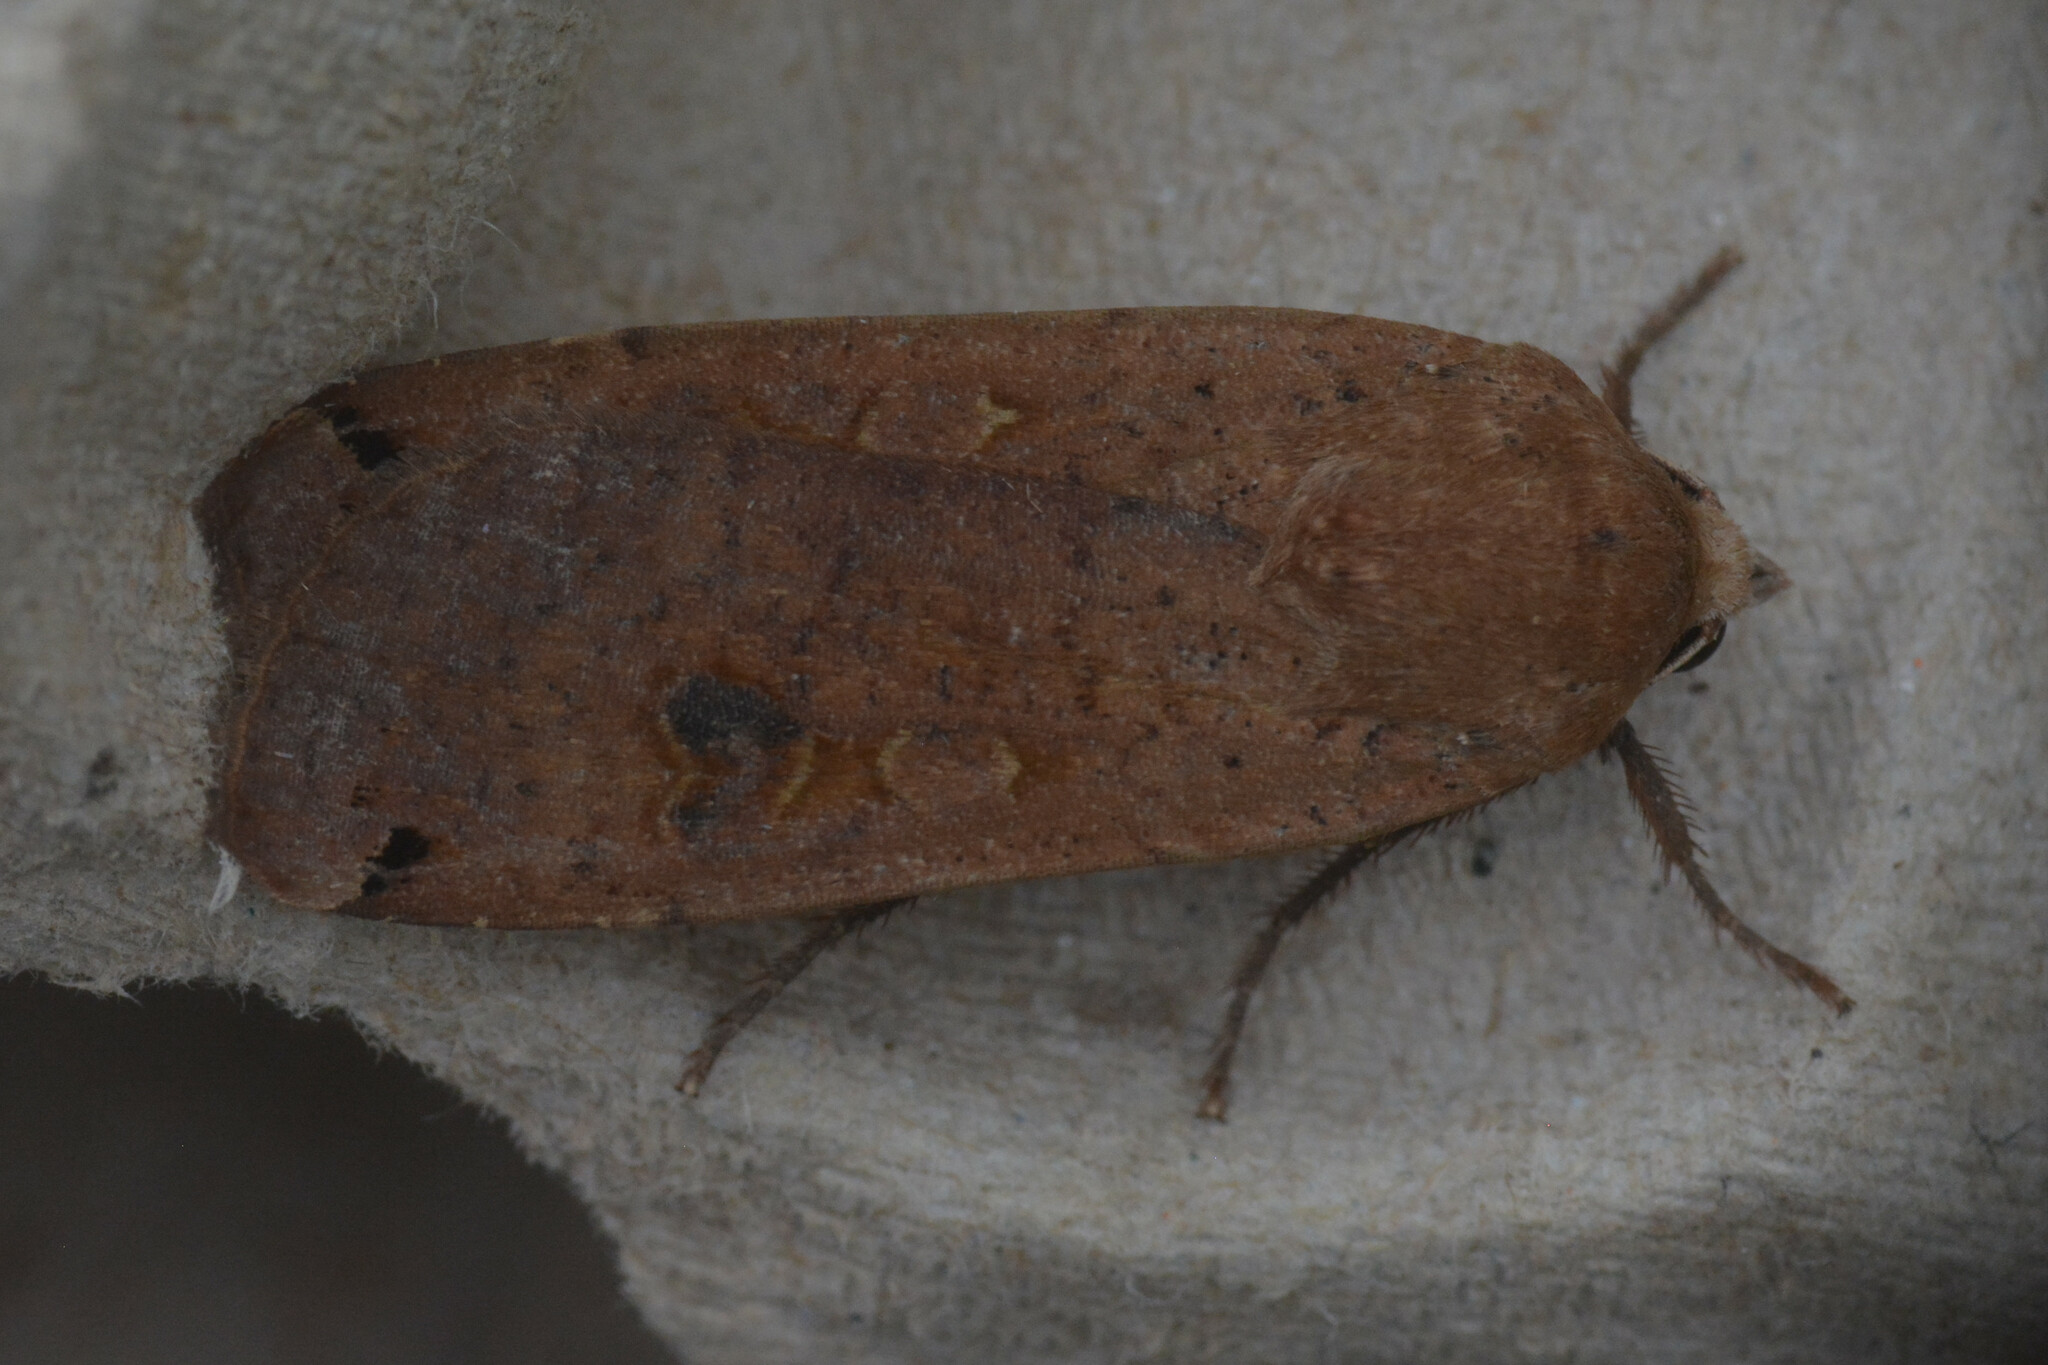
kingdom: Animalia
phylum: Arthropoda
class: Insecta
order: Lepidoptera
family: Noctuidae
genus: Noctua
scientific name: Noctua pronuba
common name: Large yellow underwing
